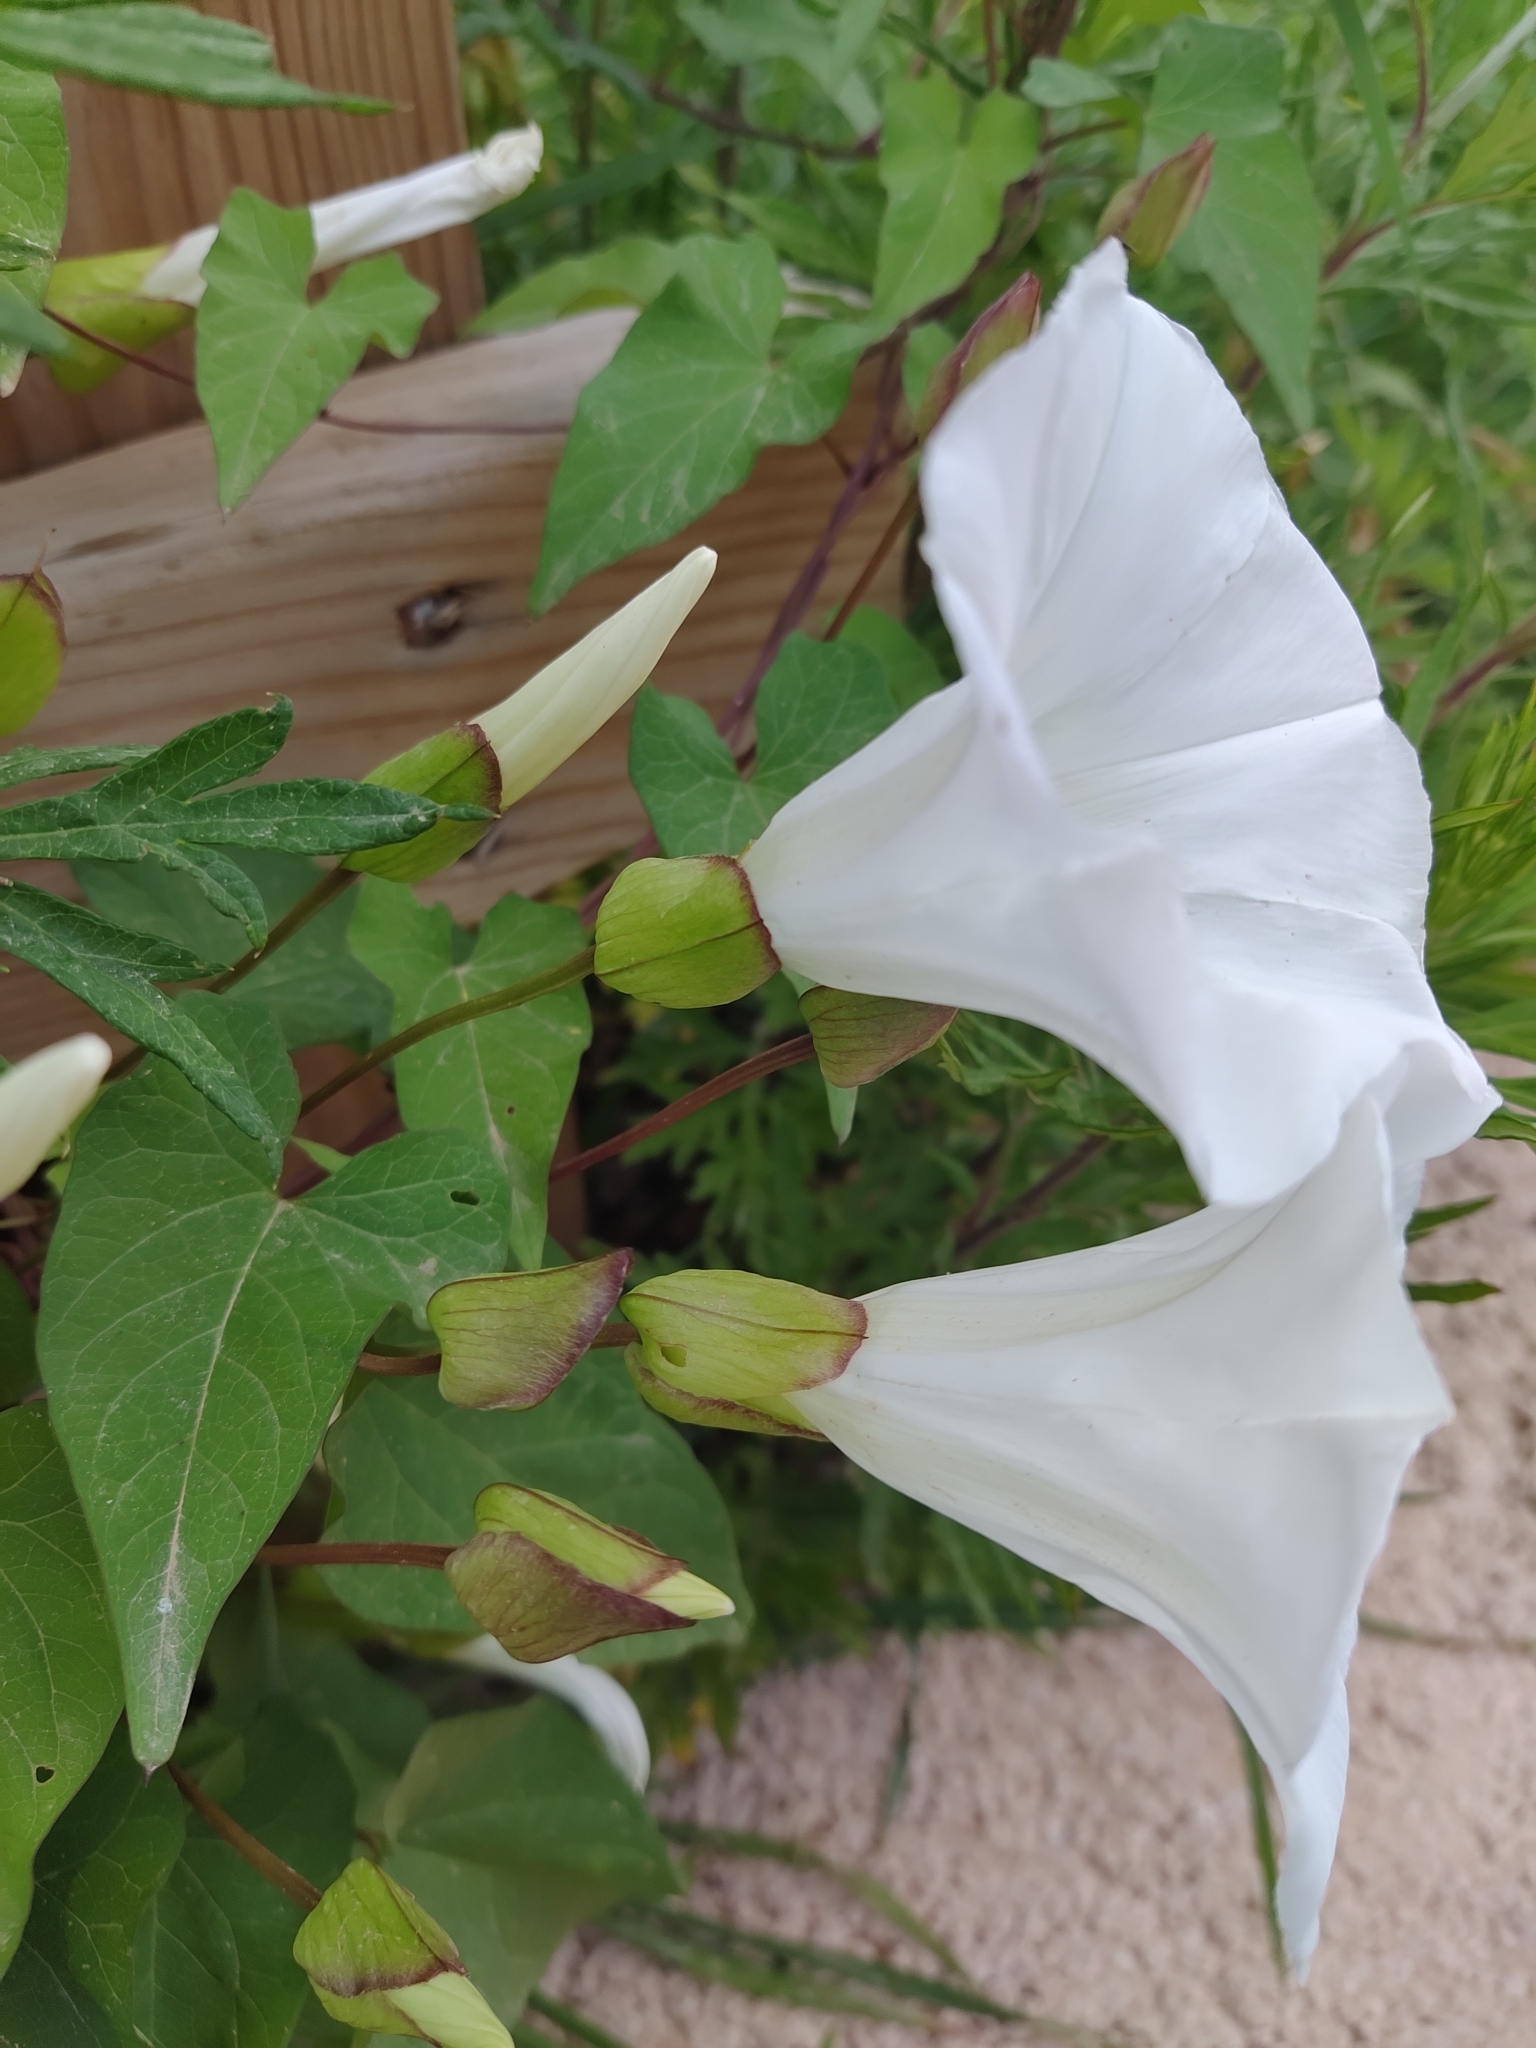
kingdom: Plantae
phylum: Tracheophyta
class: Magnoliopsida
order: Solanales
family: Convolvulaceae
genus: Calystegia
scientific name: Calystegia silvatica
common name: Large bindweed
